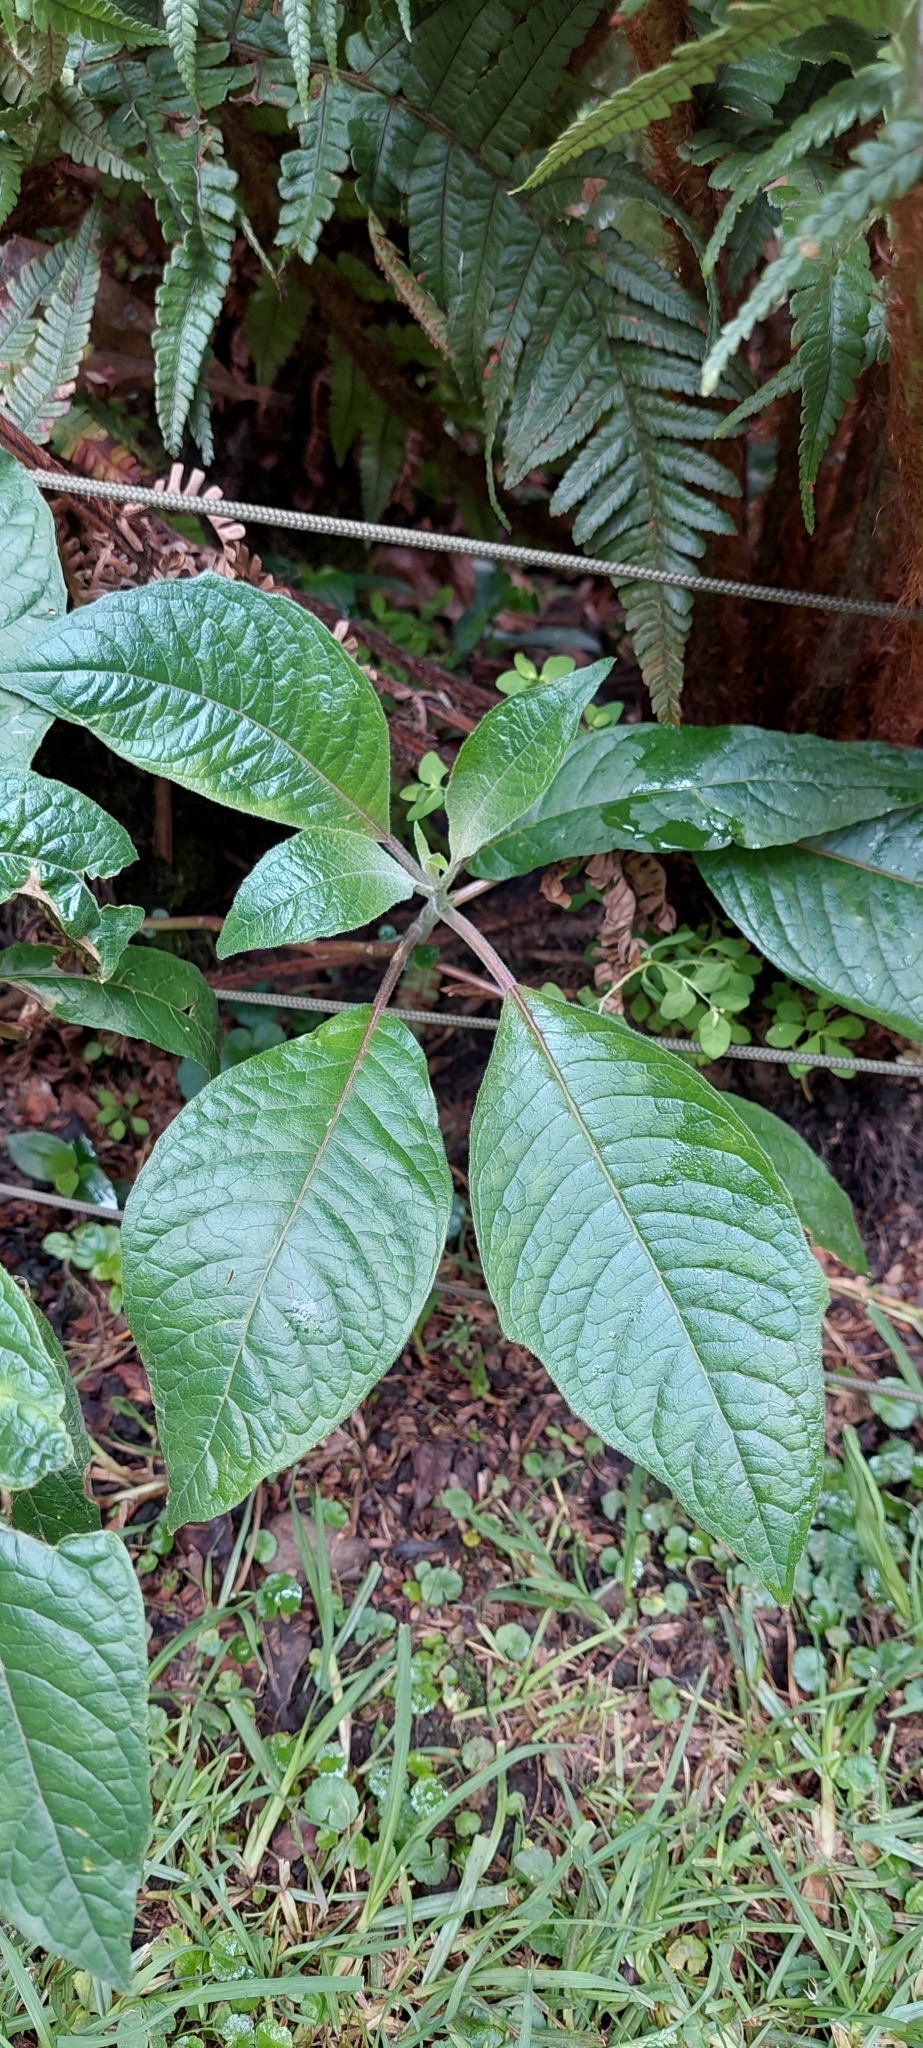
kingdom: Plantae
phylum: Tracheophyta
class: Magnoliopsida
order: Myrtales
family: Onagraceae
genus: Fuchsia
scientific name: Fuchsia boliviana
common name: Bolivian fuchsia
